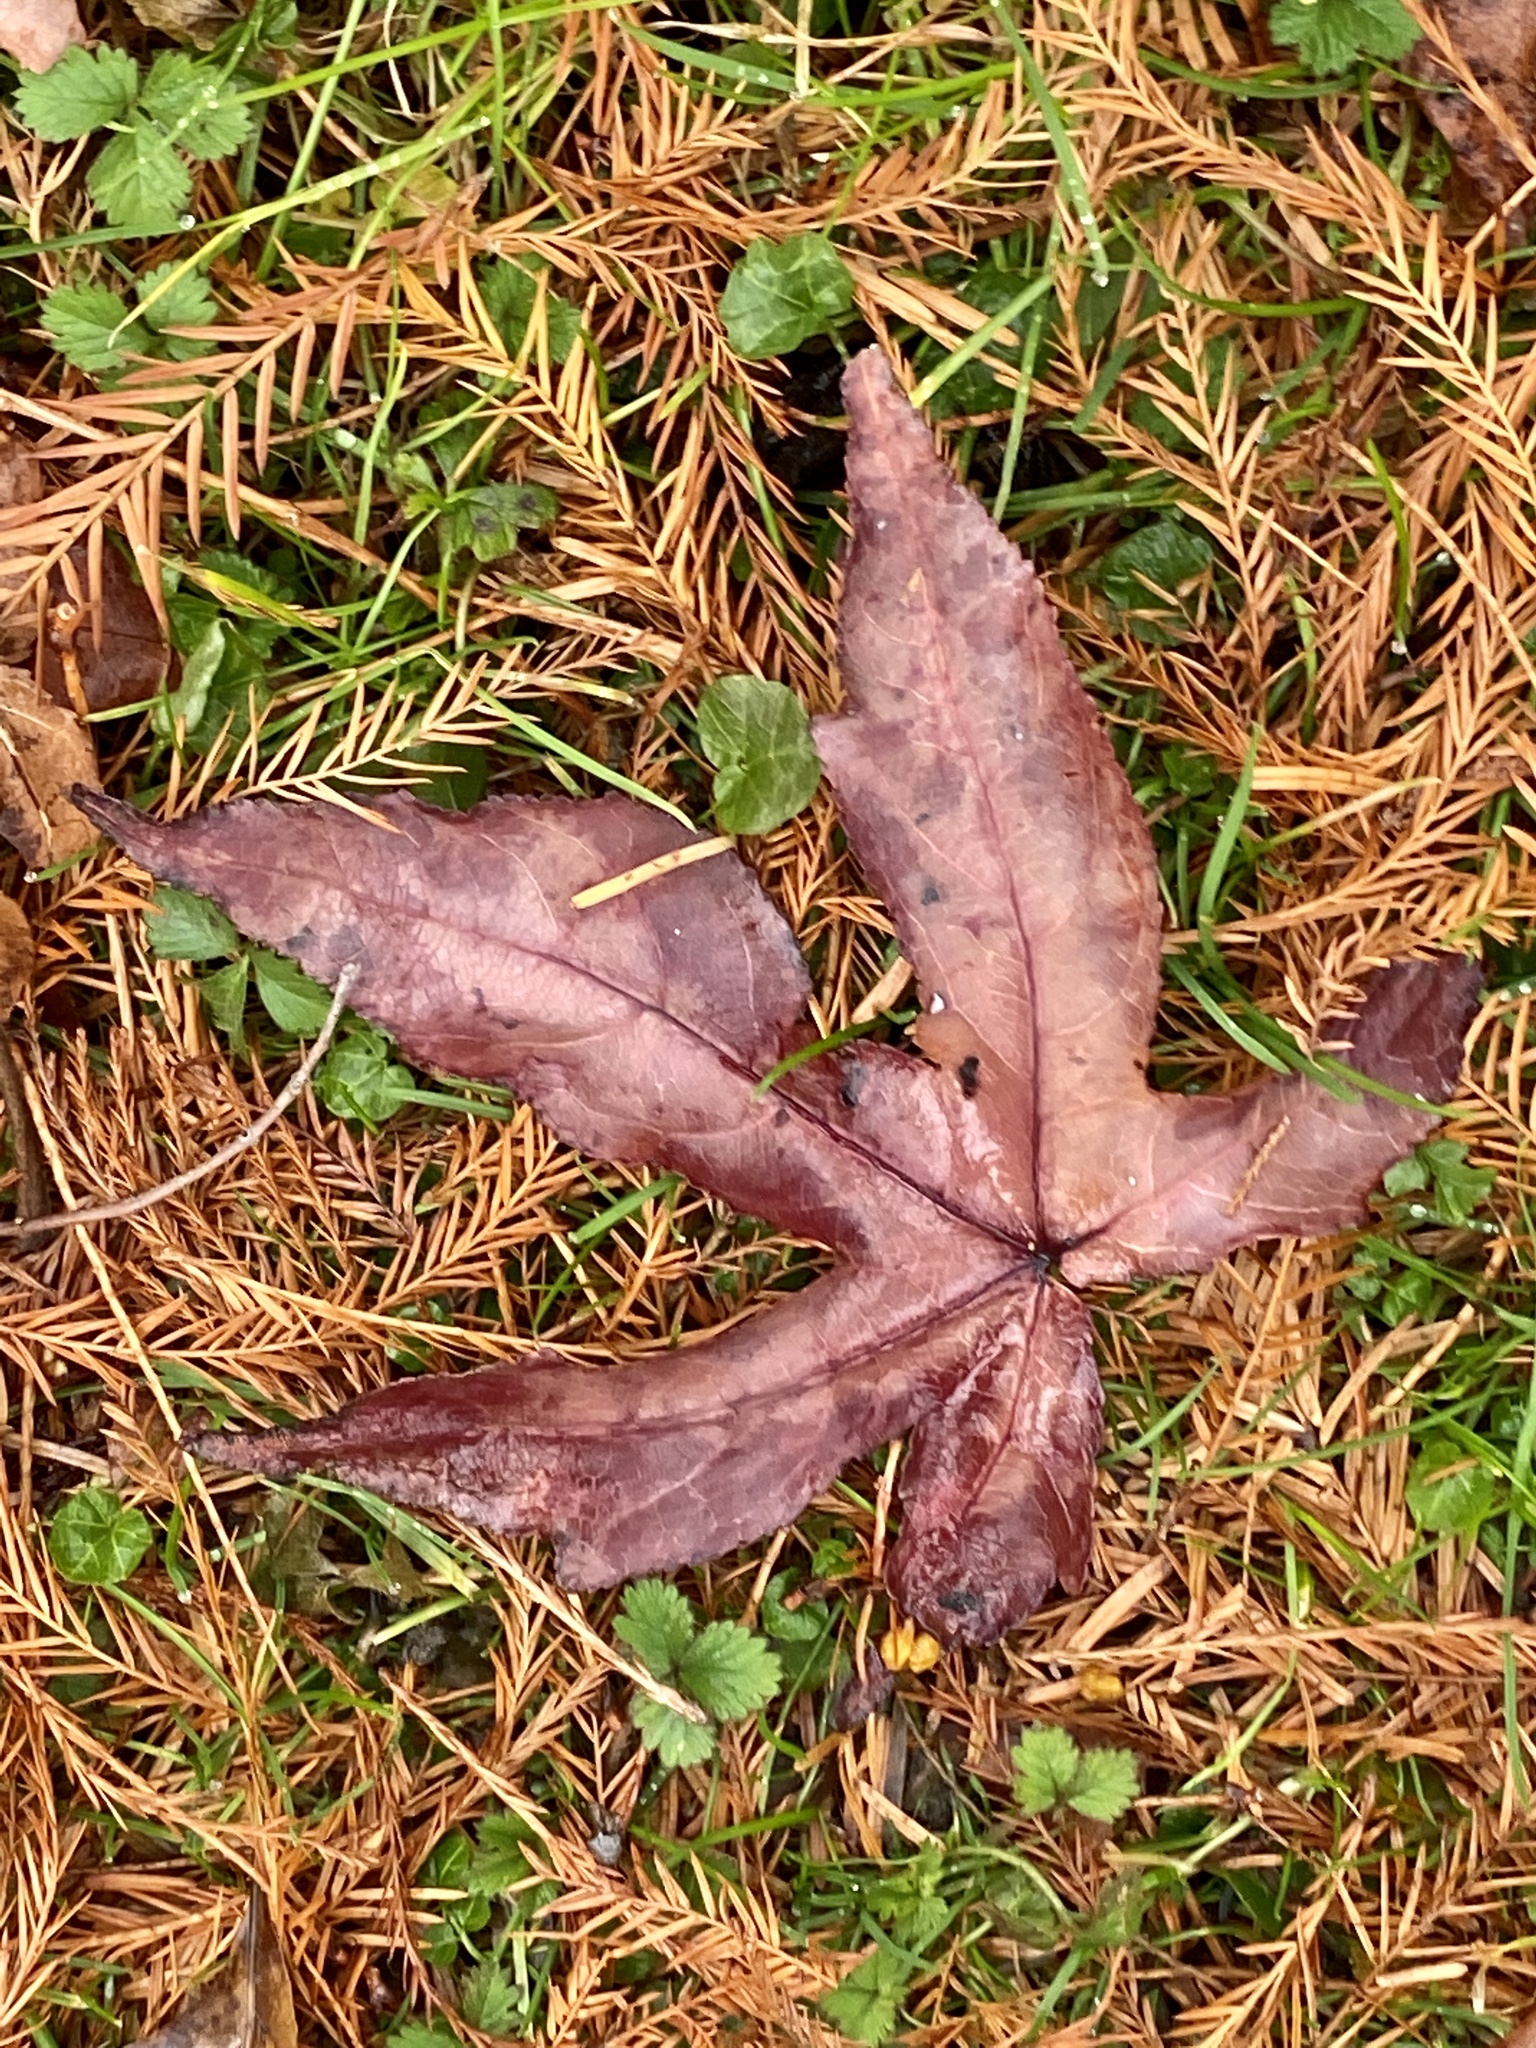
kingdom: Plantae
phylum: Tracheophyta
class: Magnoliopsida
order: Saxifragales
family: Altingiaceae
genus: Liquidambar
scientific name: Liquidambar styraciflua
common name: Sweet gum
